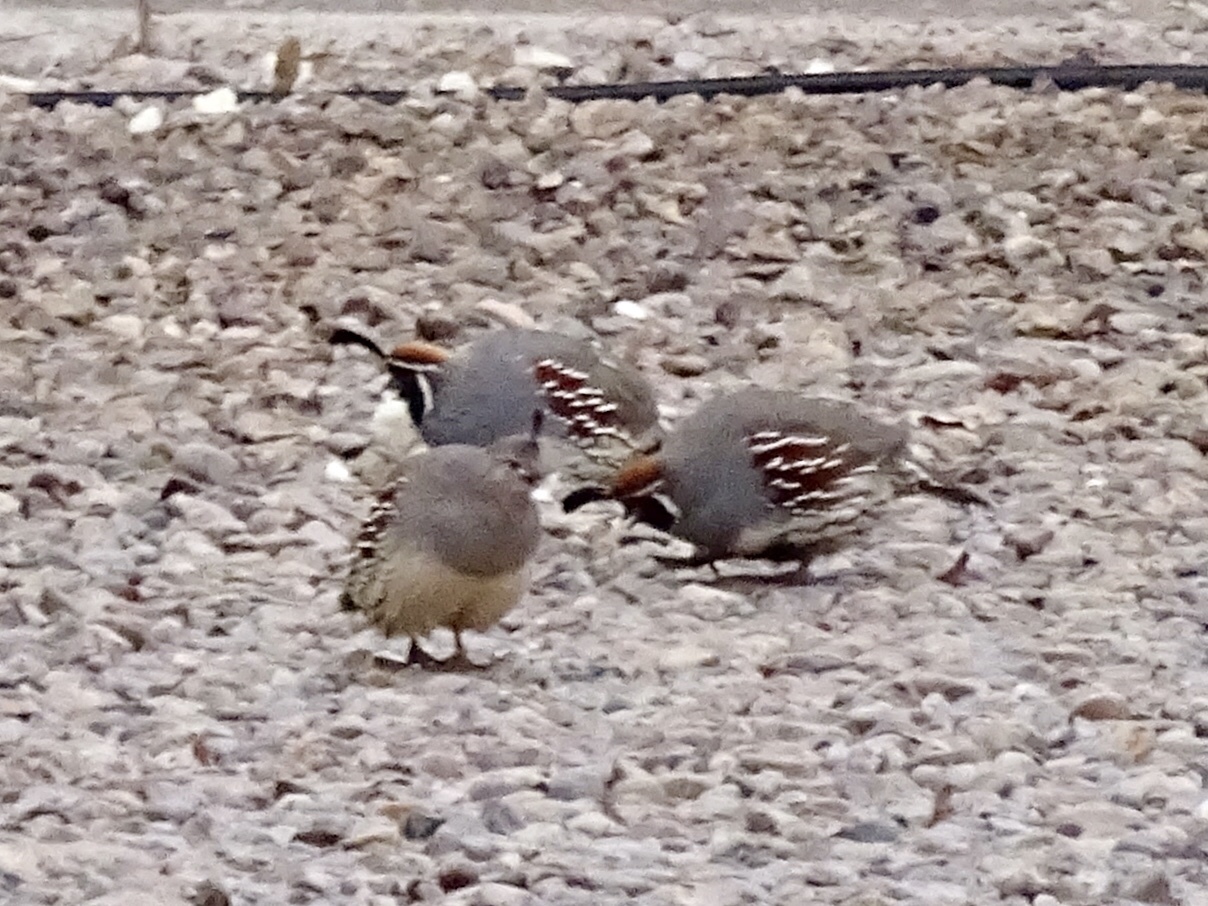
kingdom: Animalia
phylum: Chordata
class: Aves
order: Galliformes
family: Odontophoridae
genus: Callipepla
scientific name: Callipepla gambelii
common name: Gambel's quail
